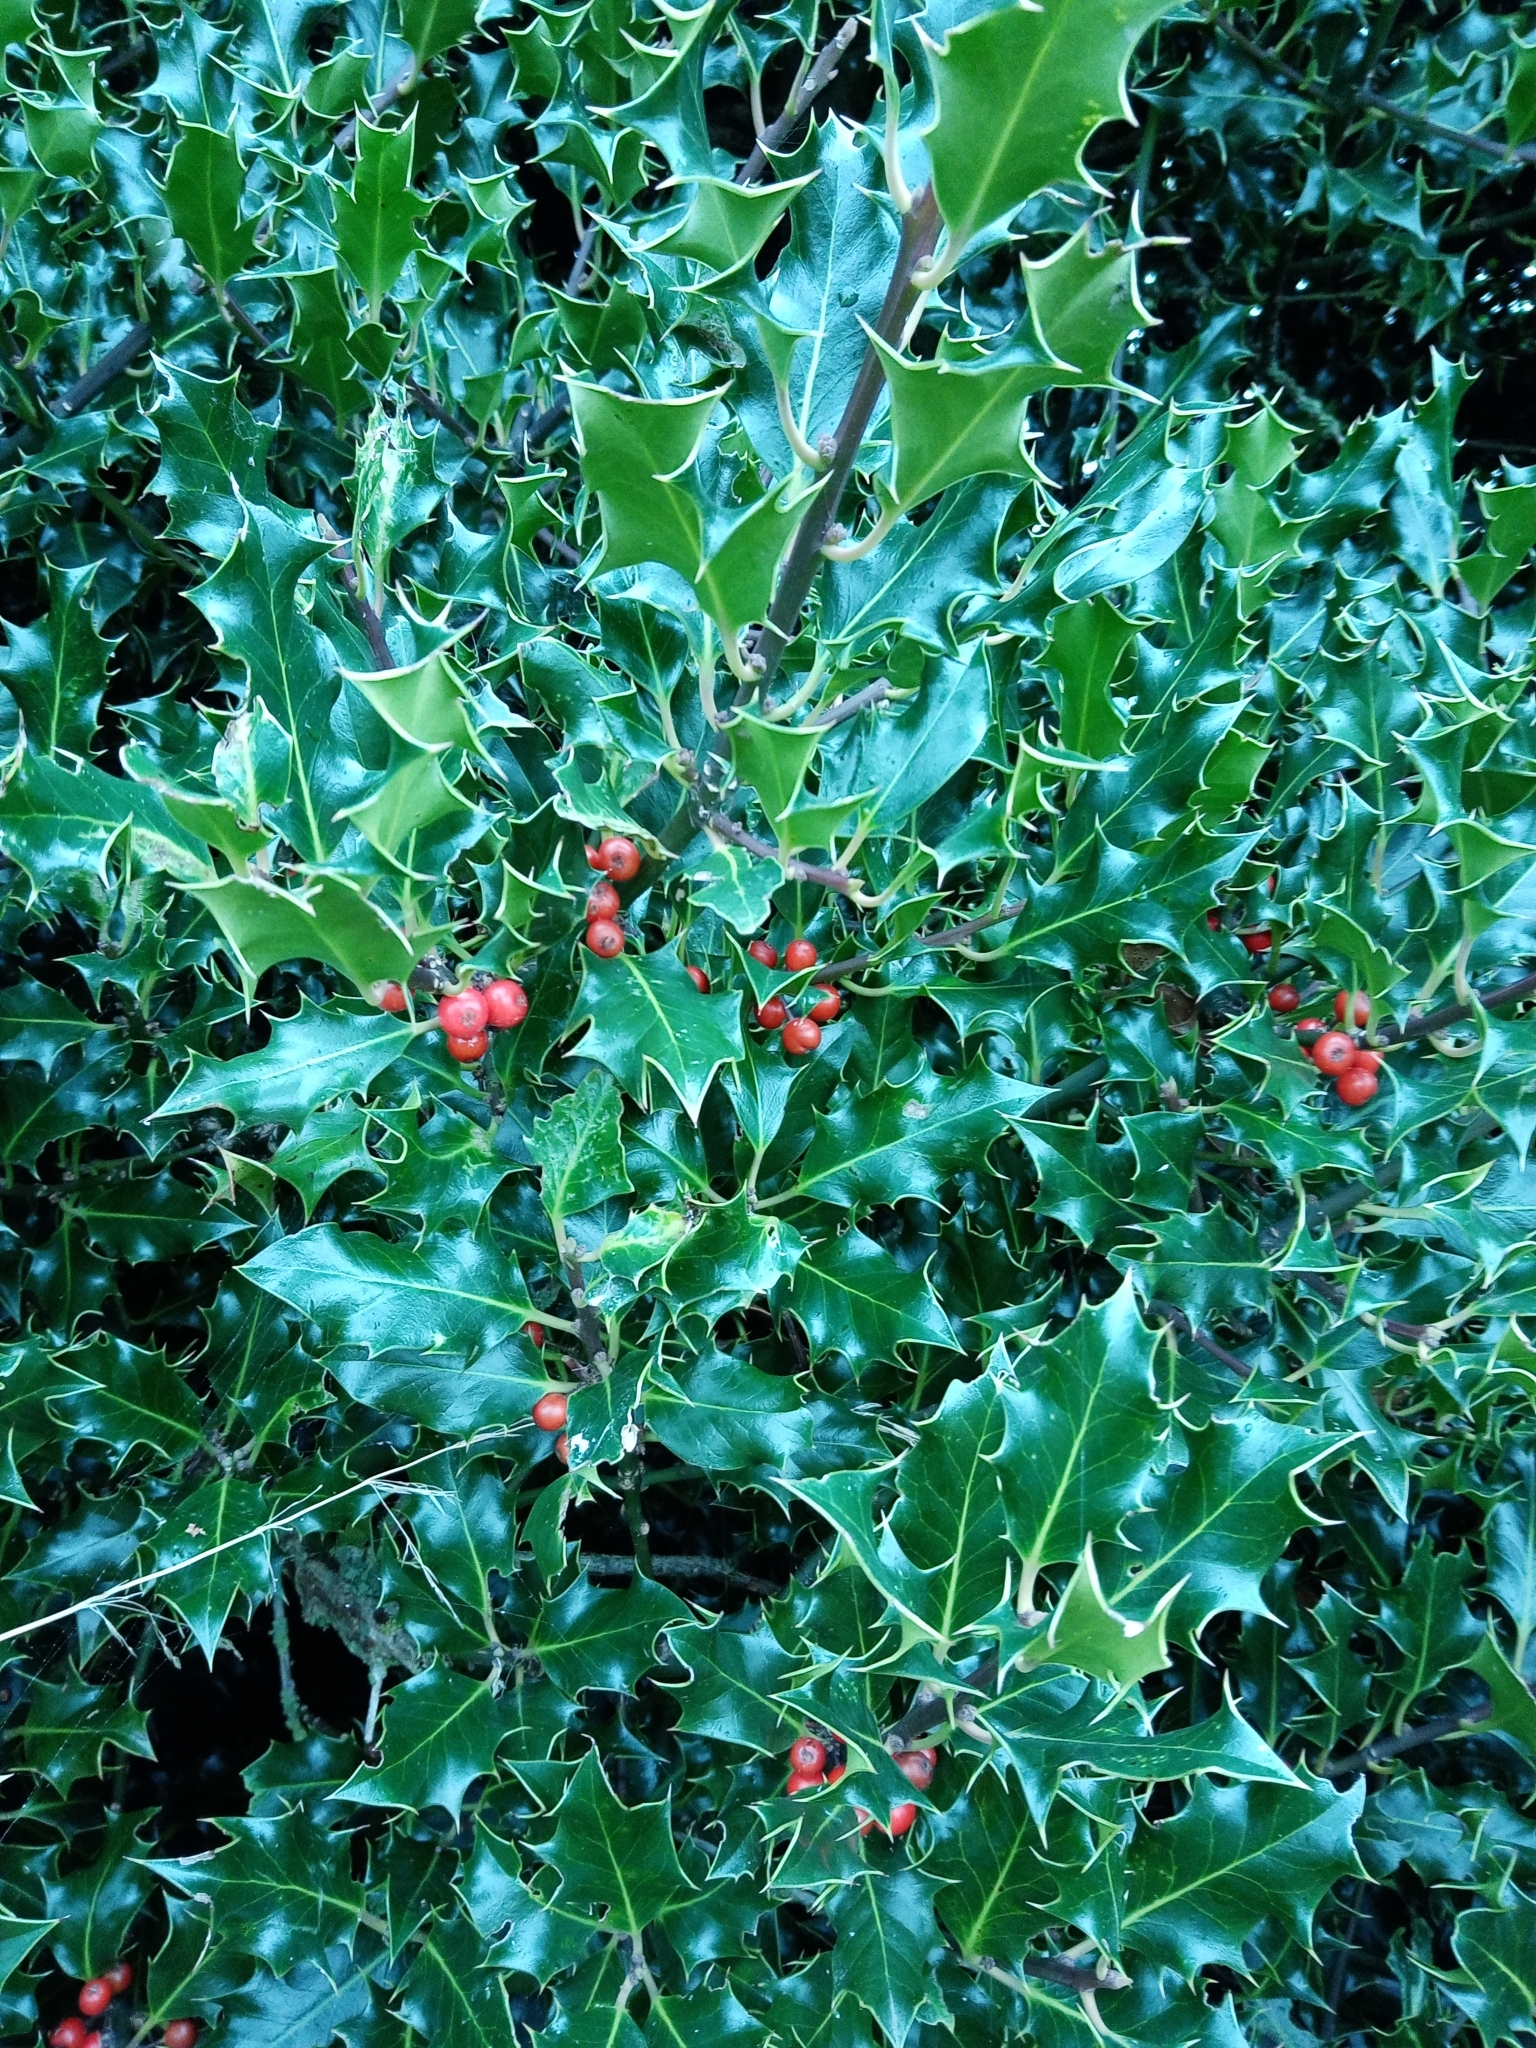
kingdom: Plantae
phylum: Tracheophyta
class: Magnoliopsida
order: Aquifoliales
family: Aquifoliaceae
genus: Ilex
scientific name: Ilex aquifolium
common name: English holly
